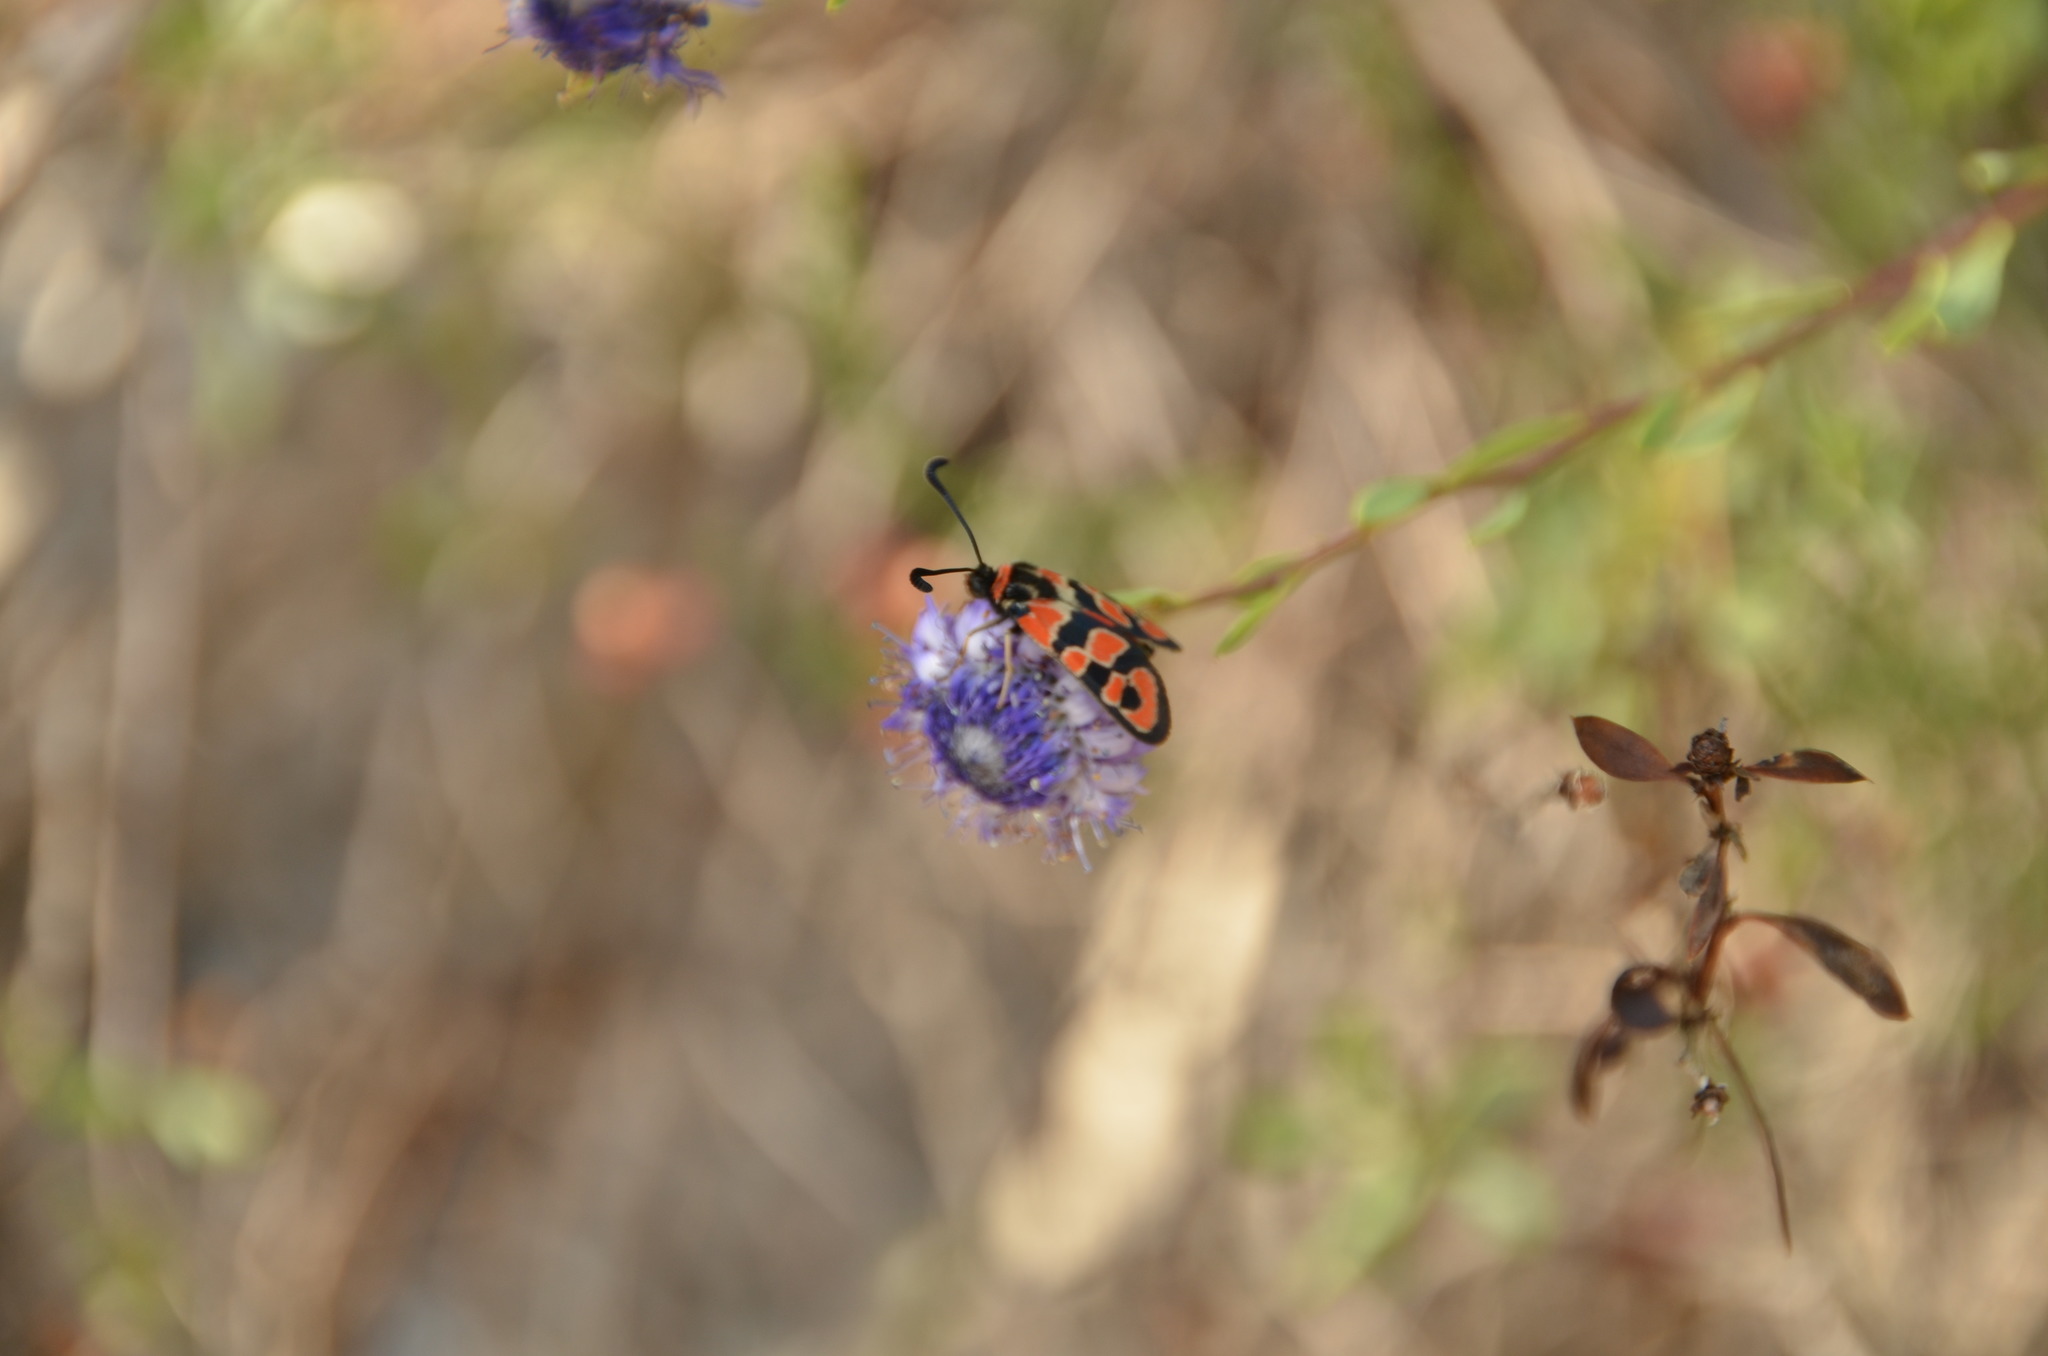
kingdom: Animalia
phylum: Arthropoda
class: Insecta
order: Lepidoptera
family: Zygaenidae
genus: Zygaena
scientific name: Zygaena fausta
